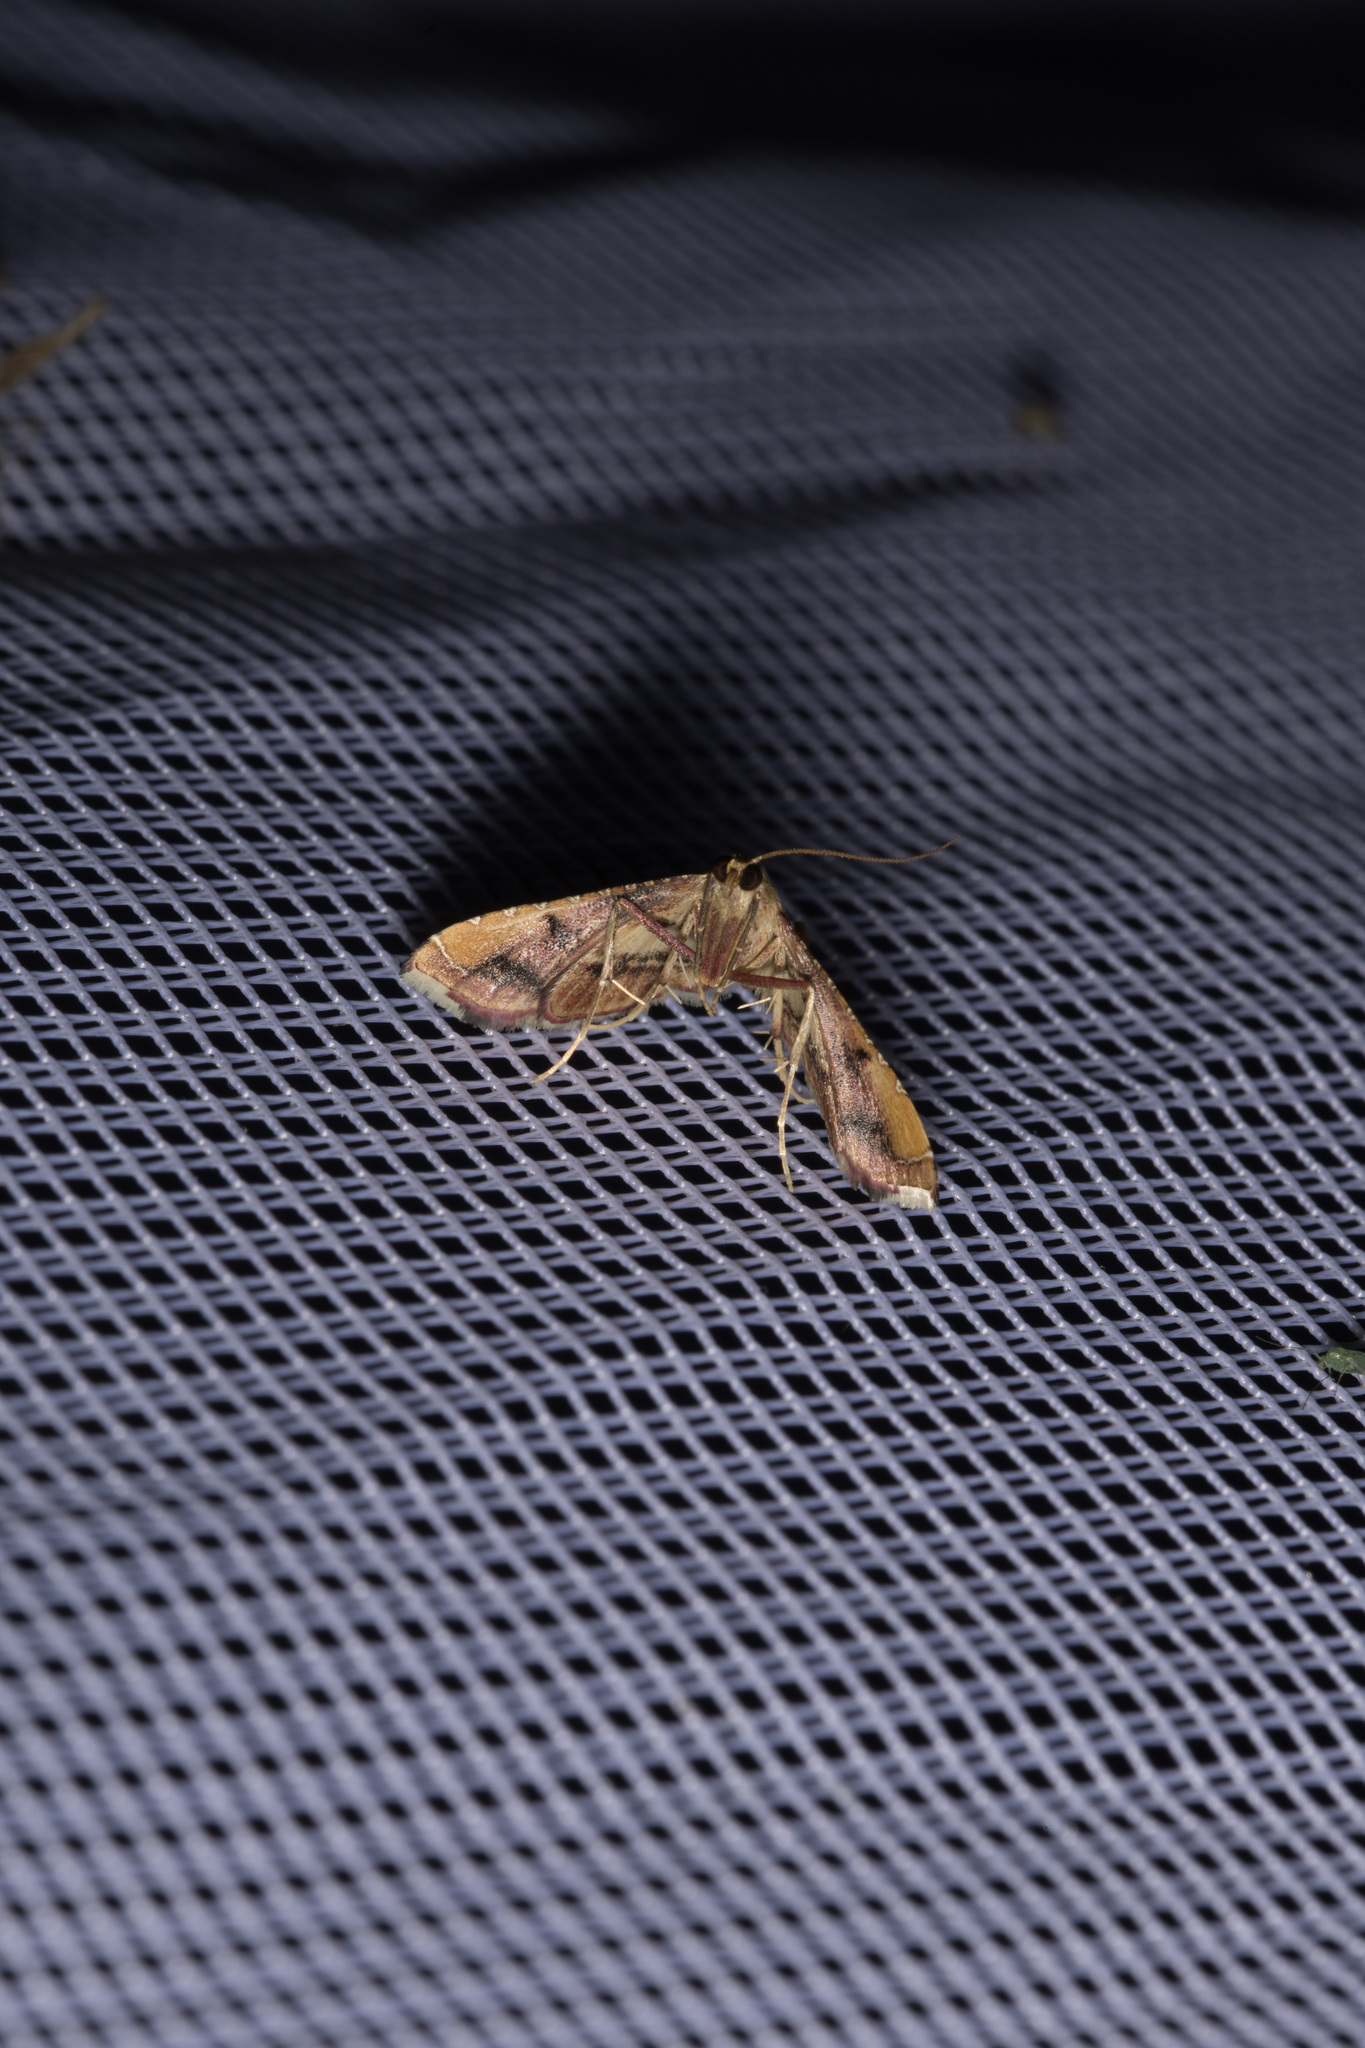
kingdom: Animalia
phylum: Arthropoda
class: Insecta
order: Lepidoptera
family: Pyralidae
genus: Endotricha
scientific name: Endotricha flammealis
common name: Rosy tabby
